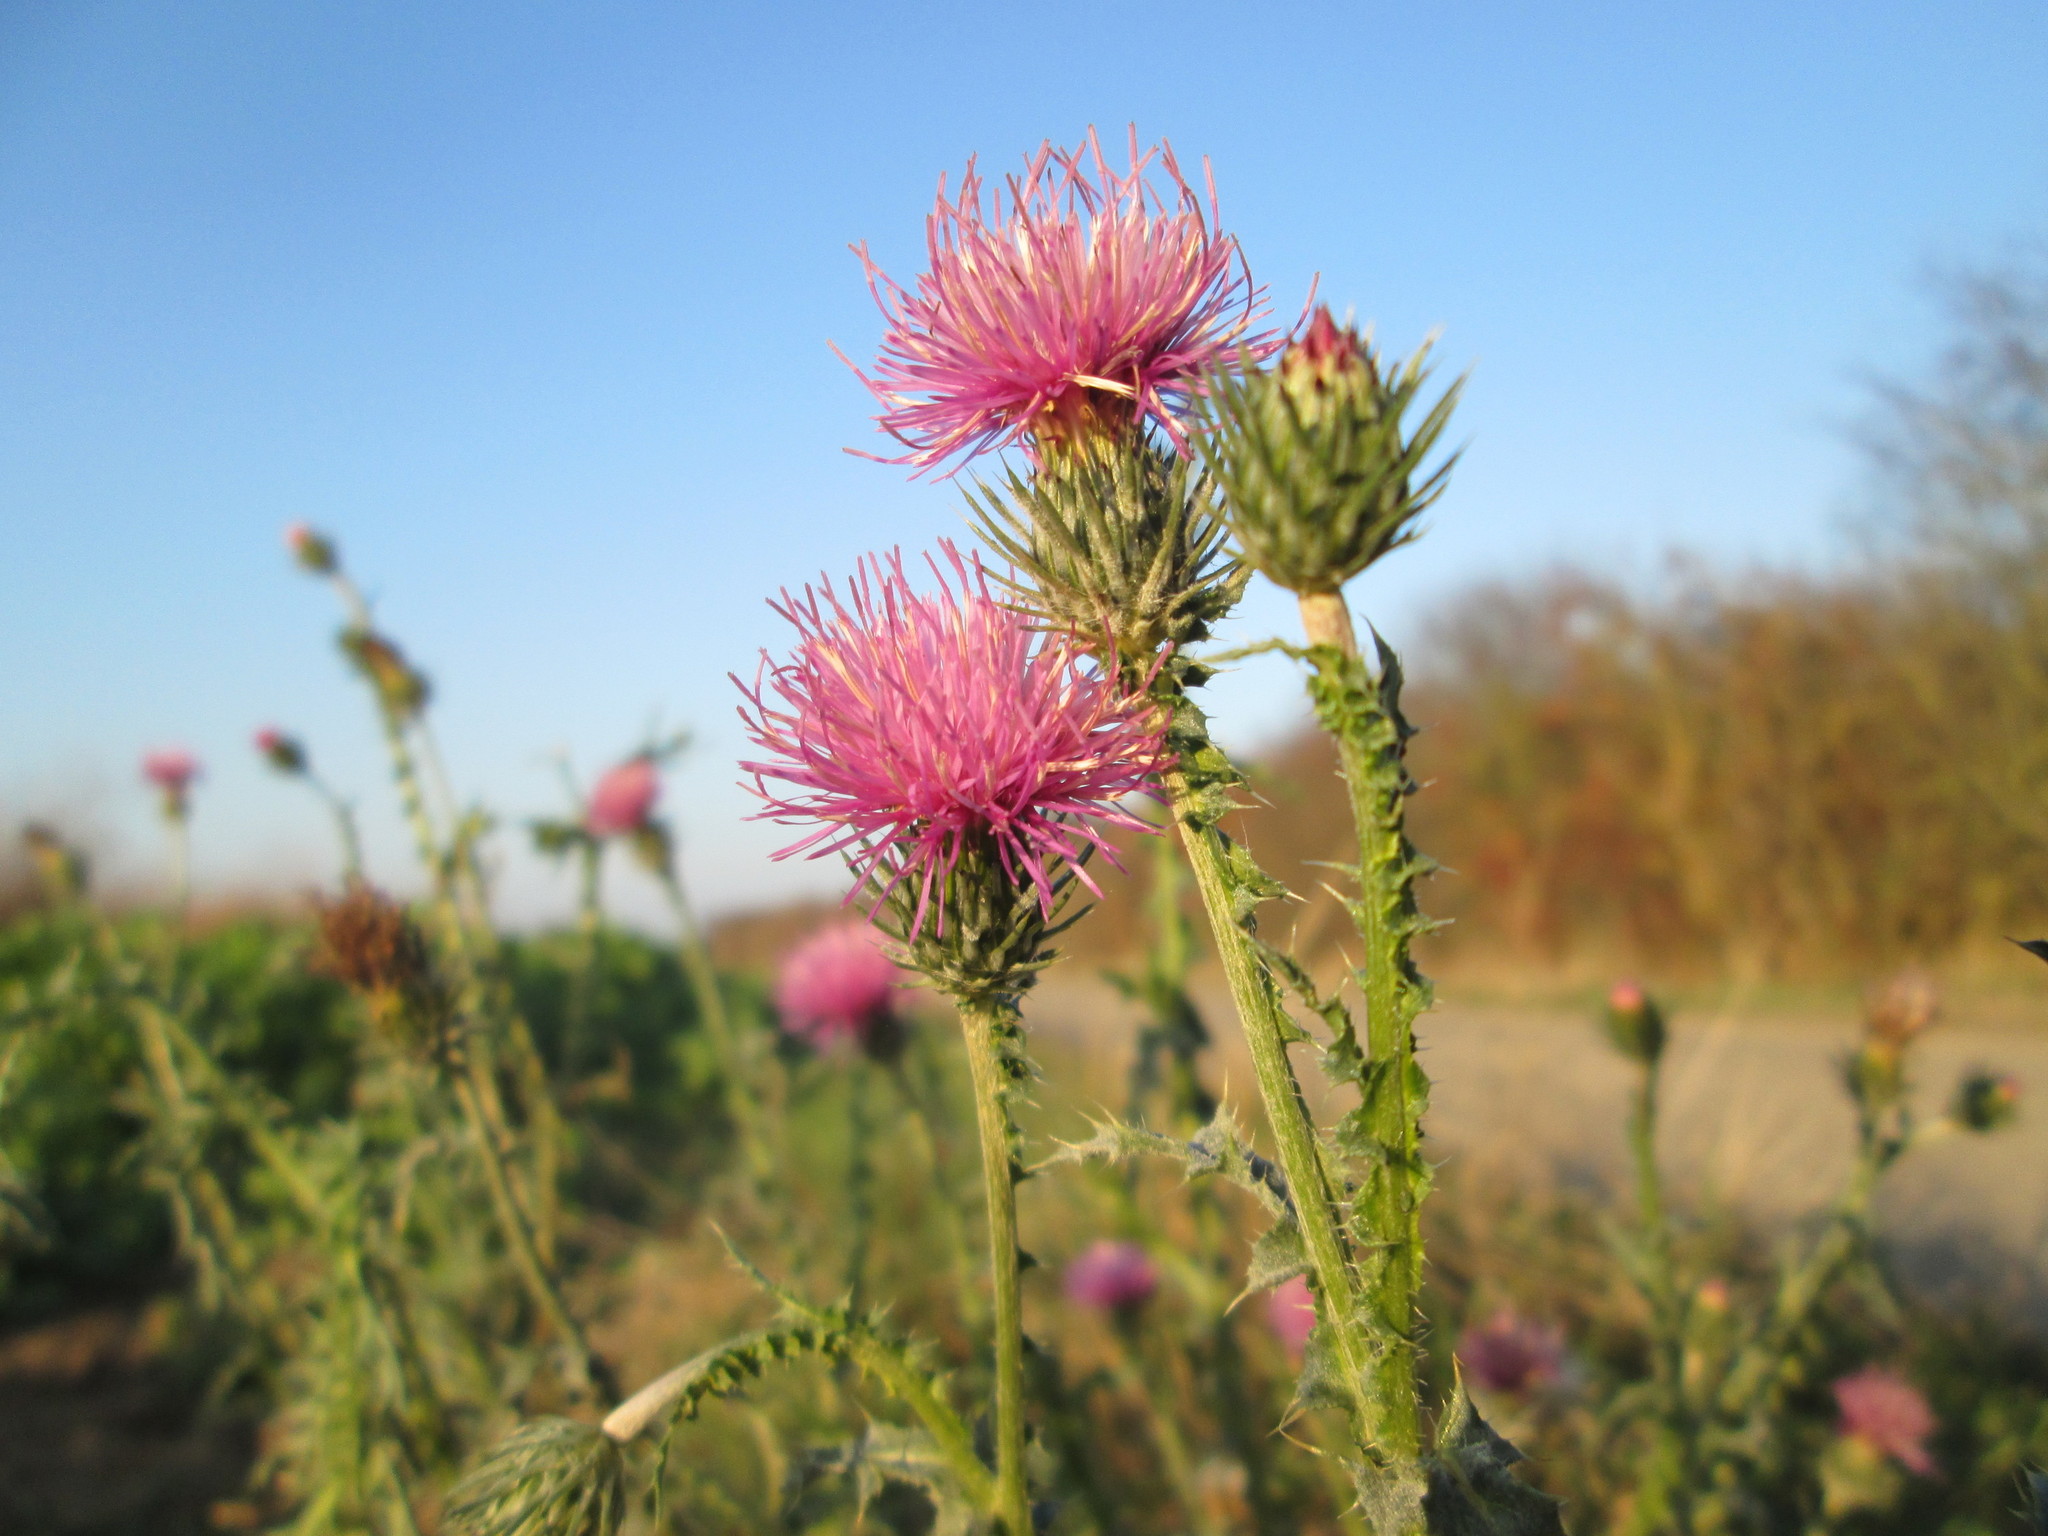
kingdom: Plantae
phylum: Tracheophyta
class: Magnoliopsida
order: Asterales
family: Asteraceae
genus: Carduus
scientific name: Carduus acanthoides
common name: Plumeless thistle
